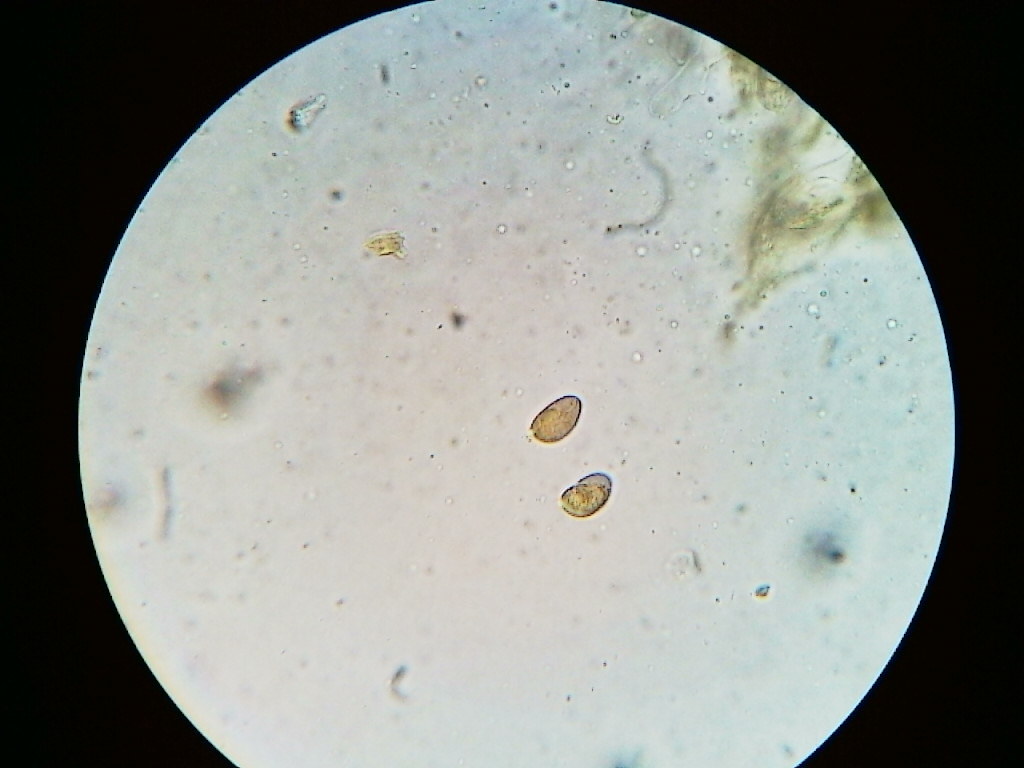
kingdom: Fungi
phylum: Basidiomycota
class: Agaricomycetes
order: Agaricales
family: Mycenaceae
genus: Mycena
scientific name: Mycena leptocephala
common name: Nitrous bonnet
